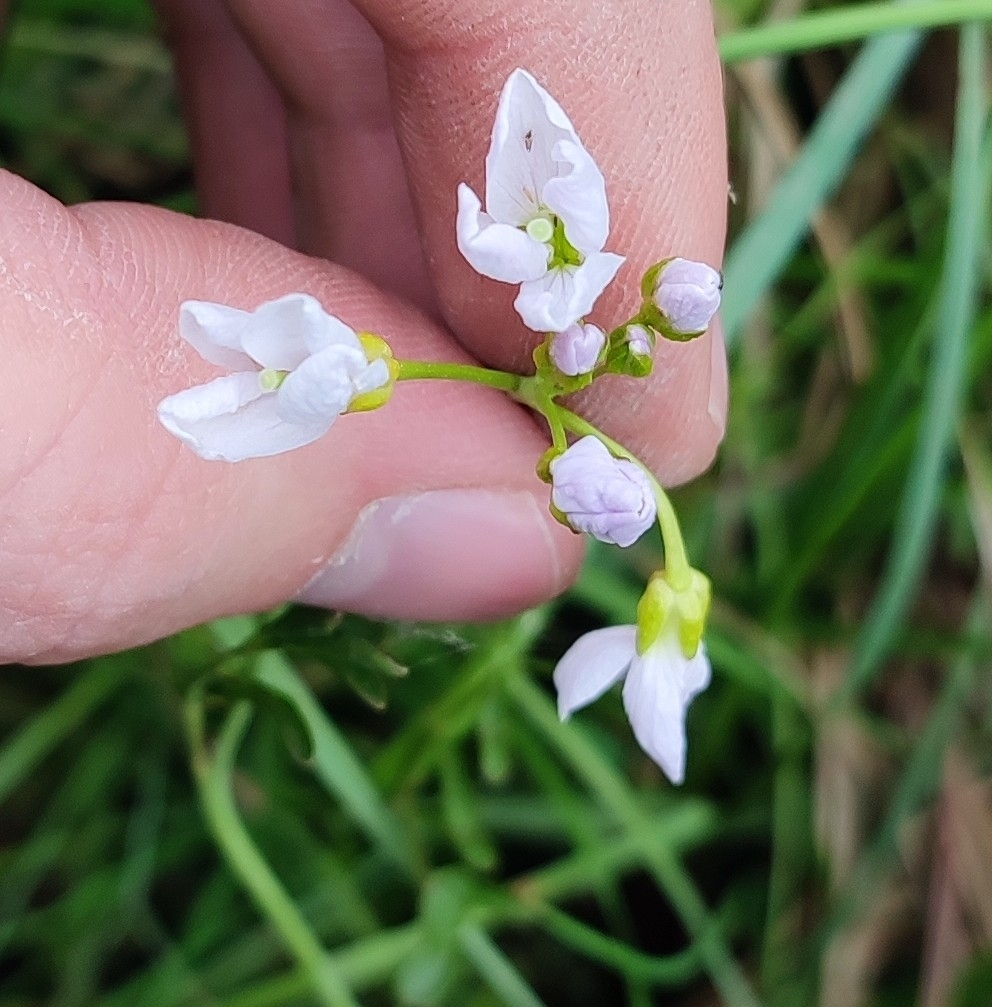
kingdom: Plantae
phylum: Tracheophyta
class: Magnoliopsida
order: Brassicales
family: Brassicaceae
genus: Cardamine
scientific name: Cardamine dentata
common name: Toothed bittercress
